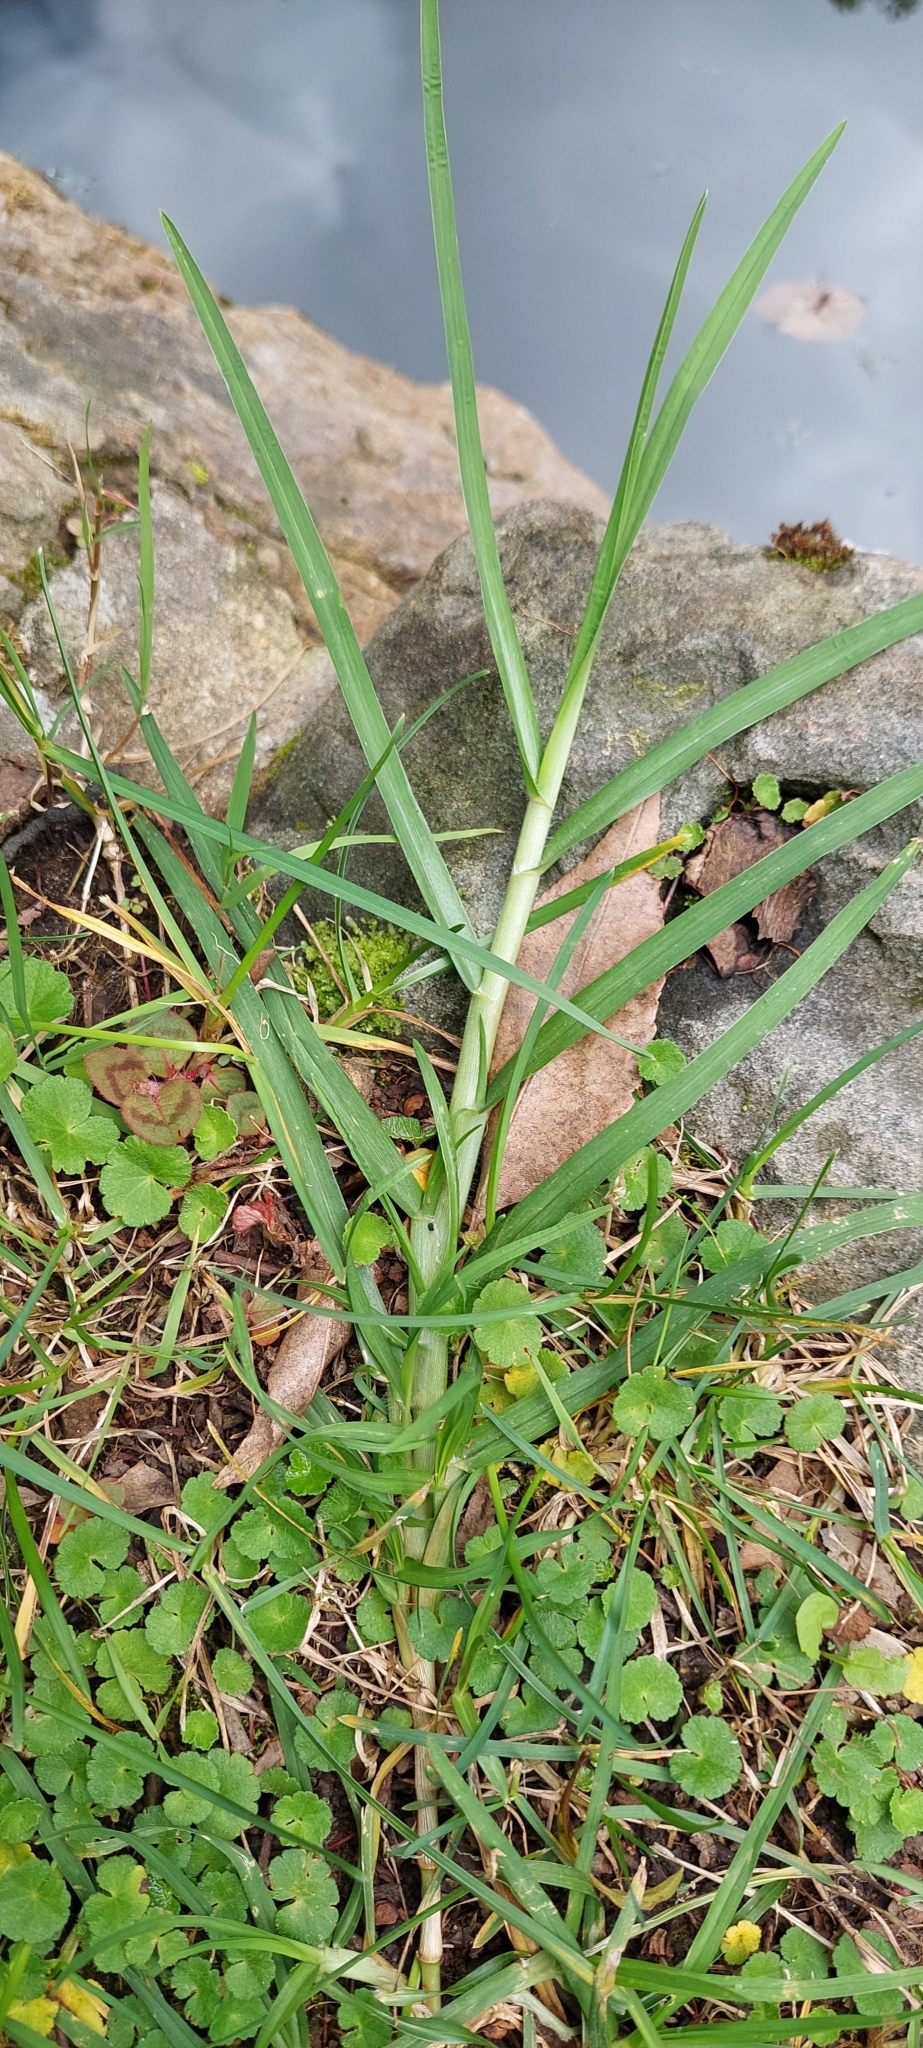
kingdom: Plantae
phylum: Tracheophyta
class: Liliopsida
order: Poales
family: Poaceae
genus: Cenchrus
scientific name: Cenchrus clandestinus
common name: Kikuyugrass
